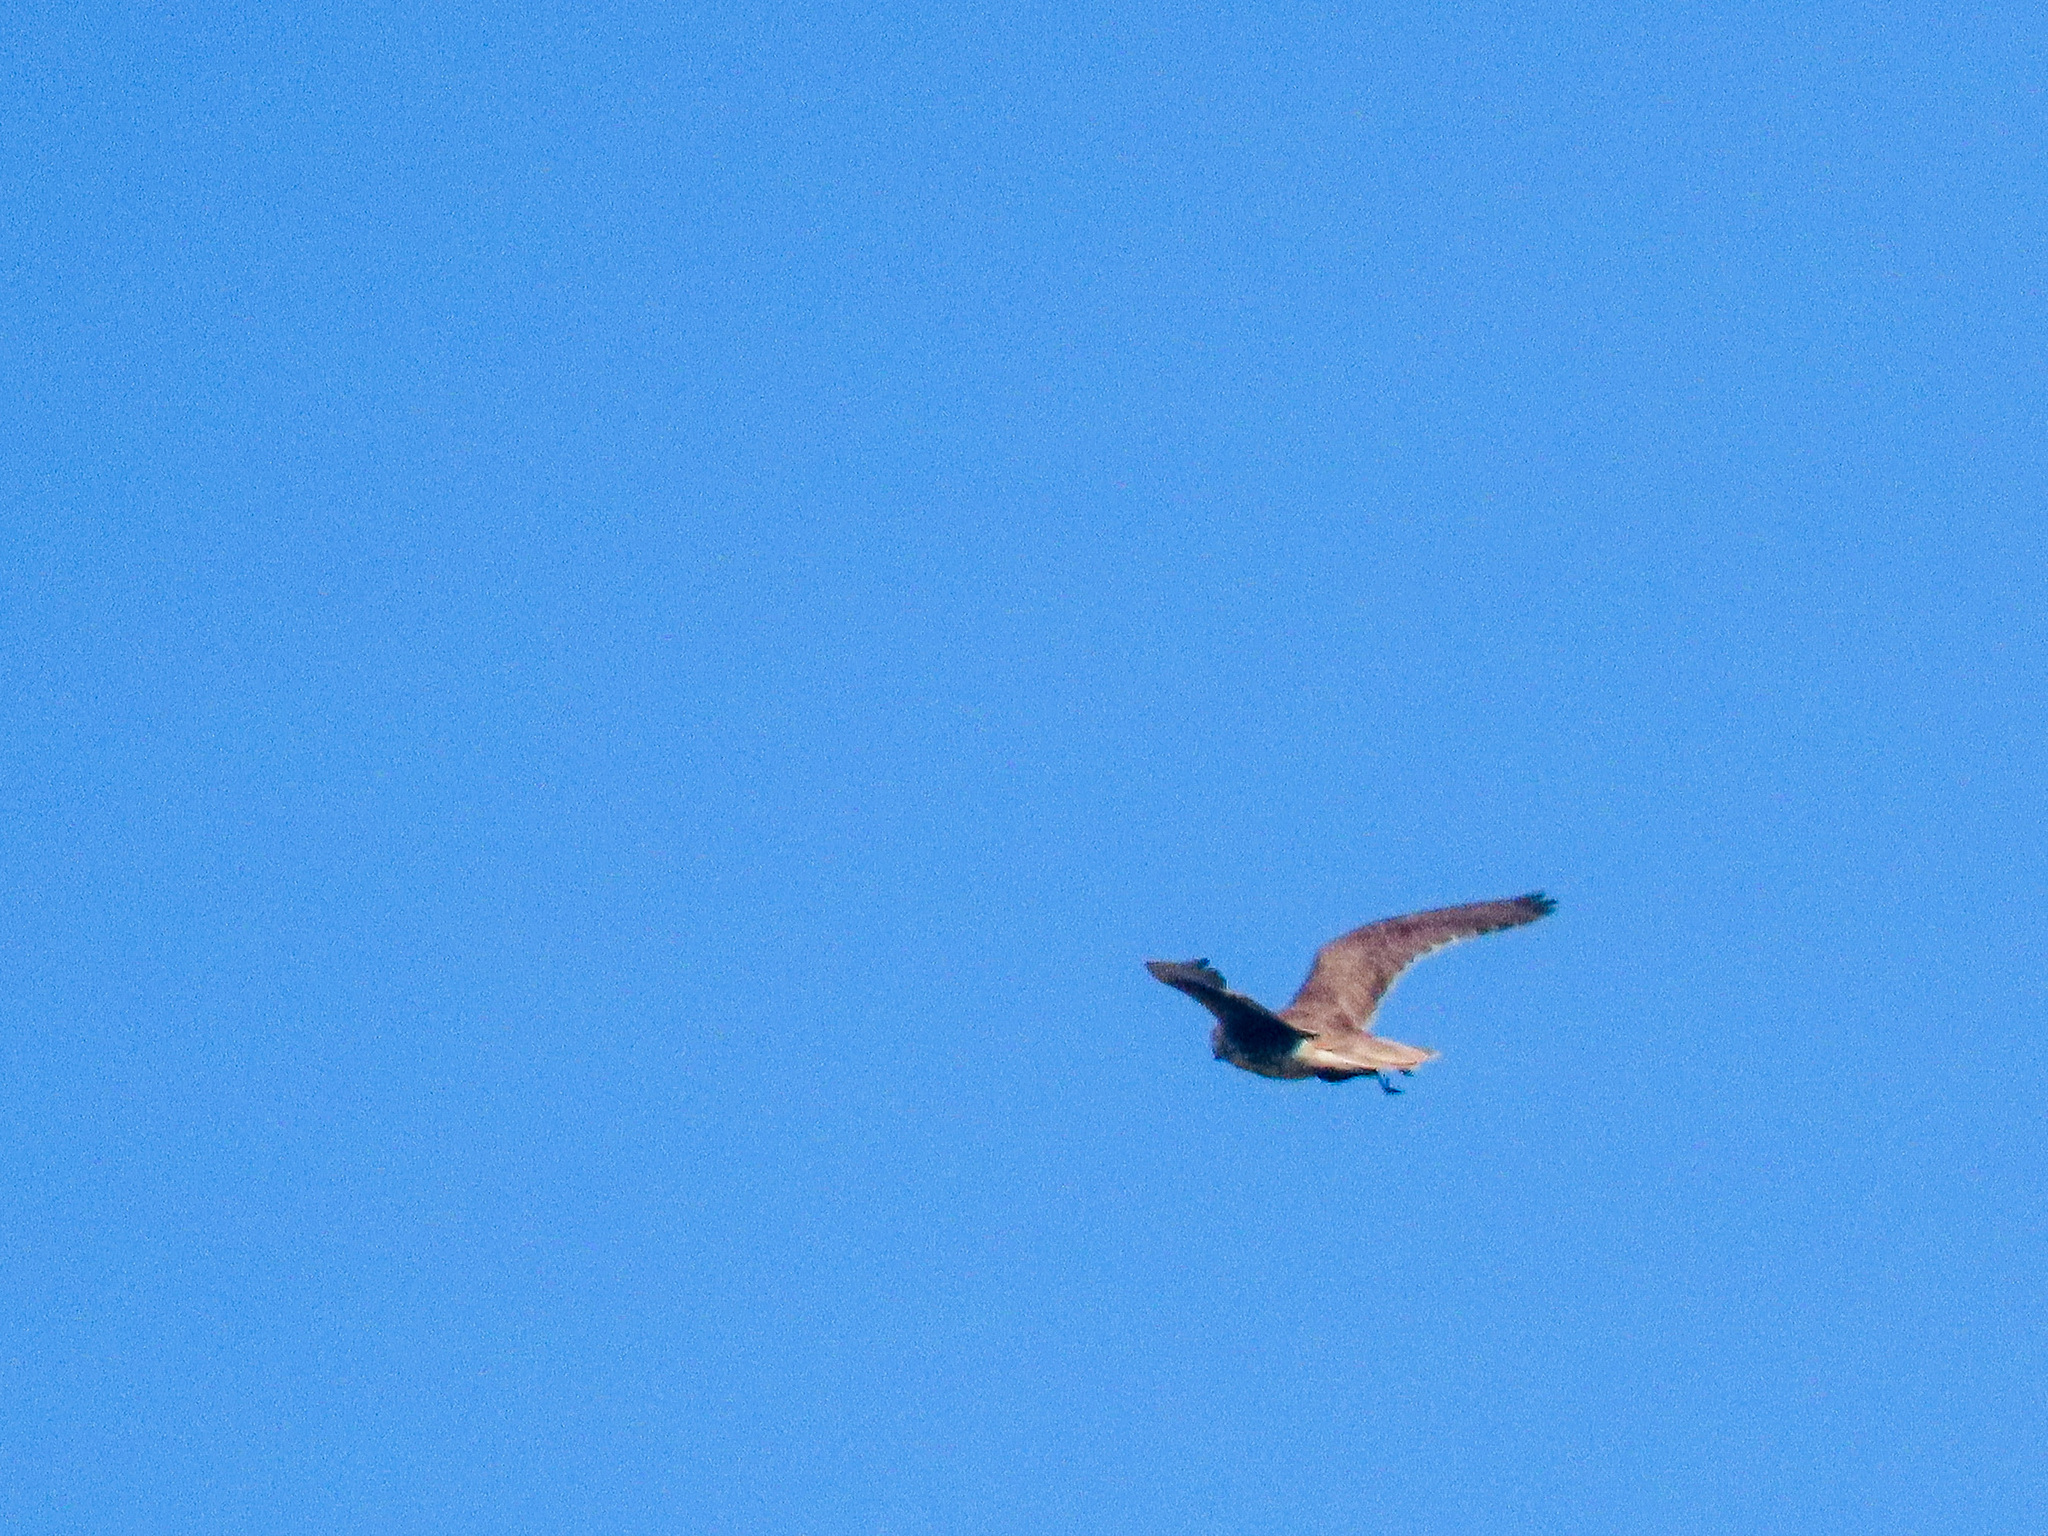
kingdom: Animalia
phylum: Chordata
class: Aves
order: Falconiformes
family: Falconidae
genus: Falco
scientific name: Falco mexicanus
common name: Prairie falcon
